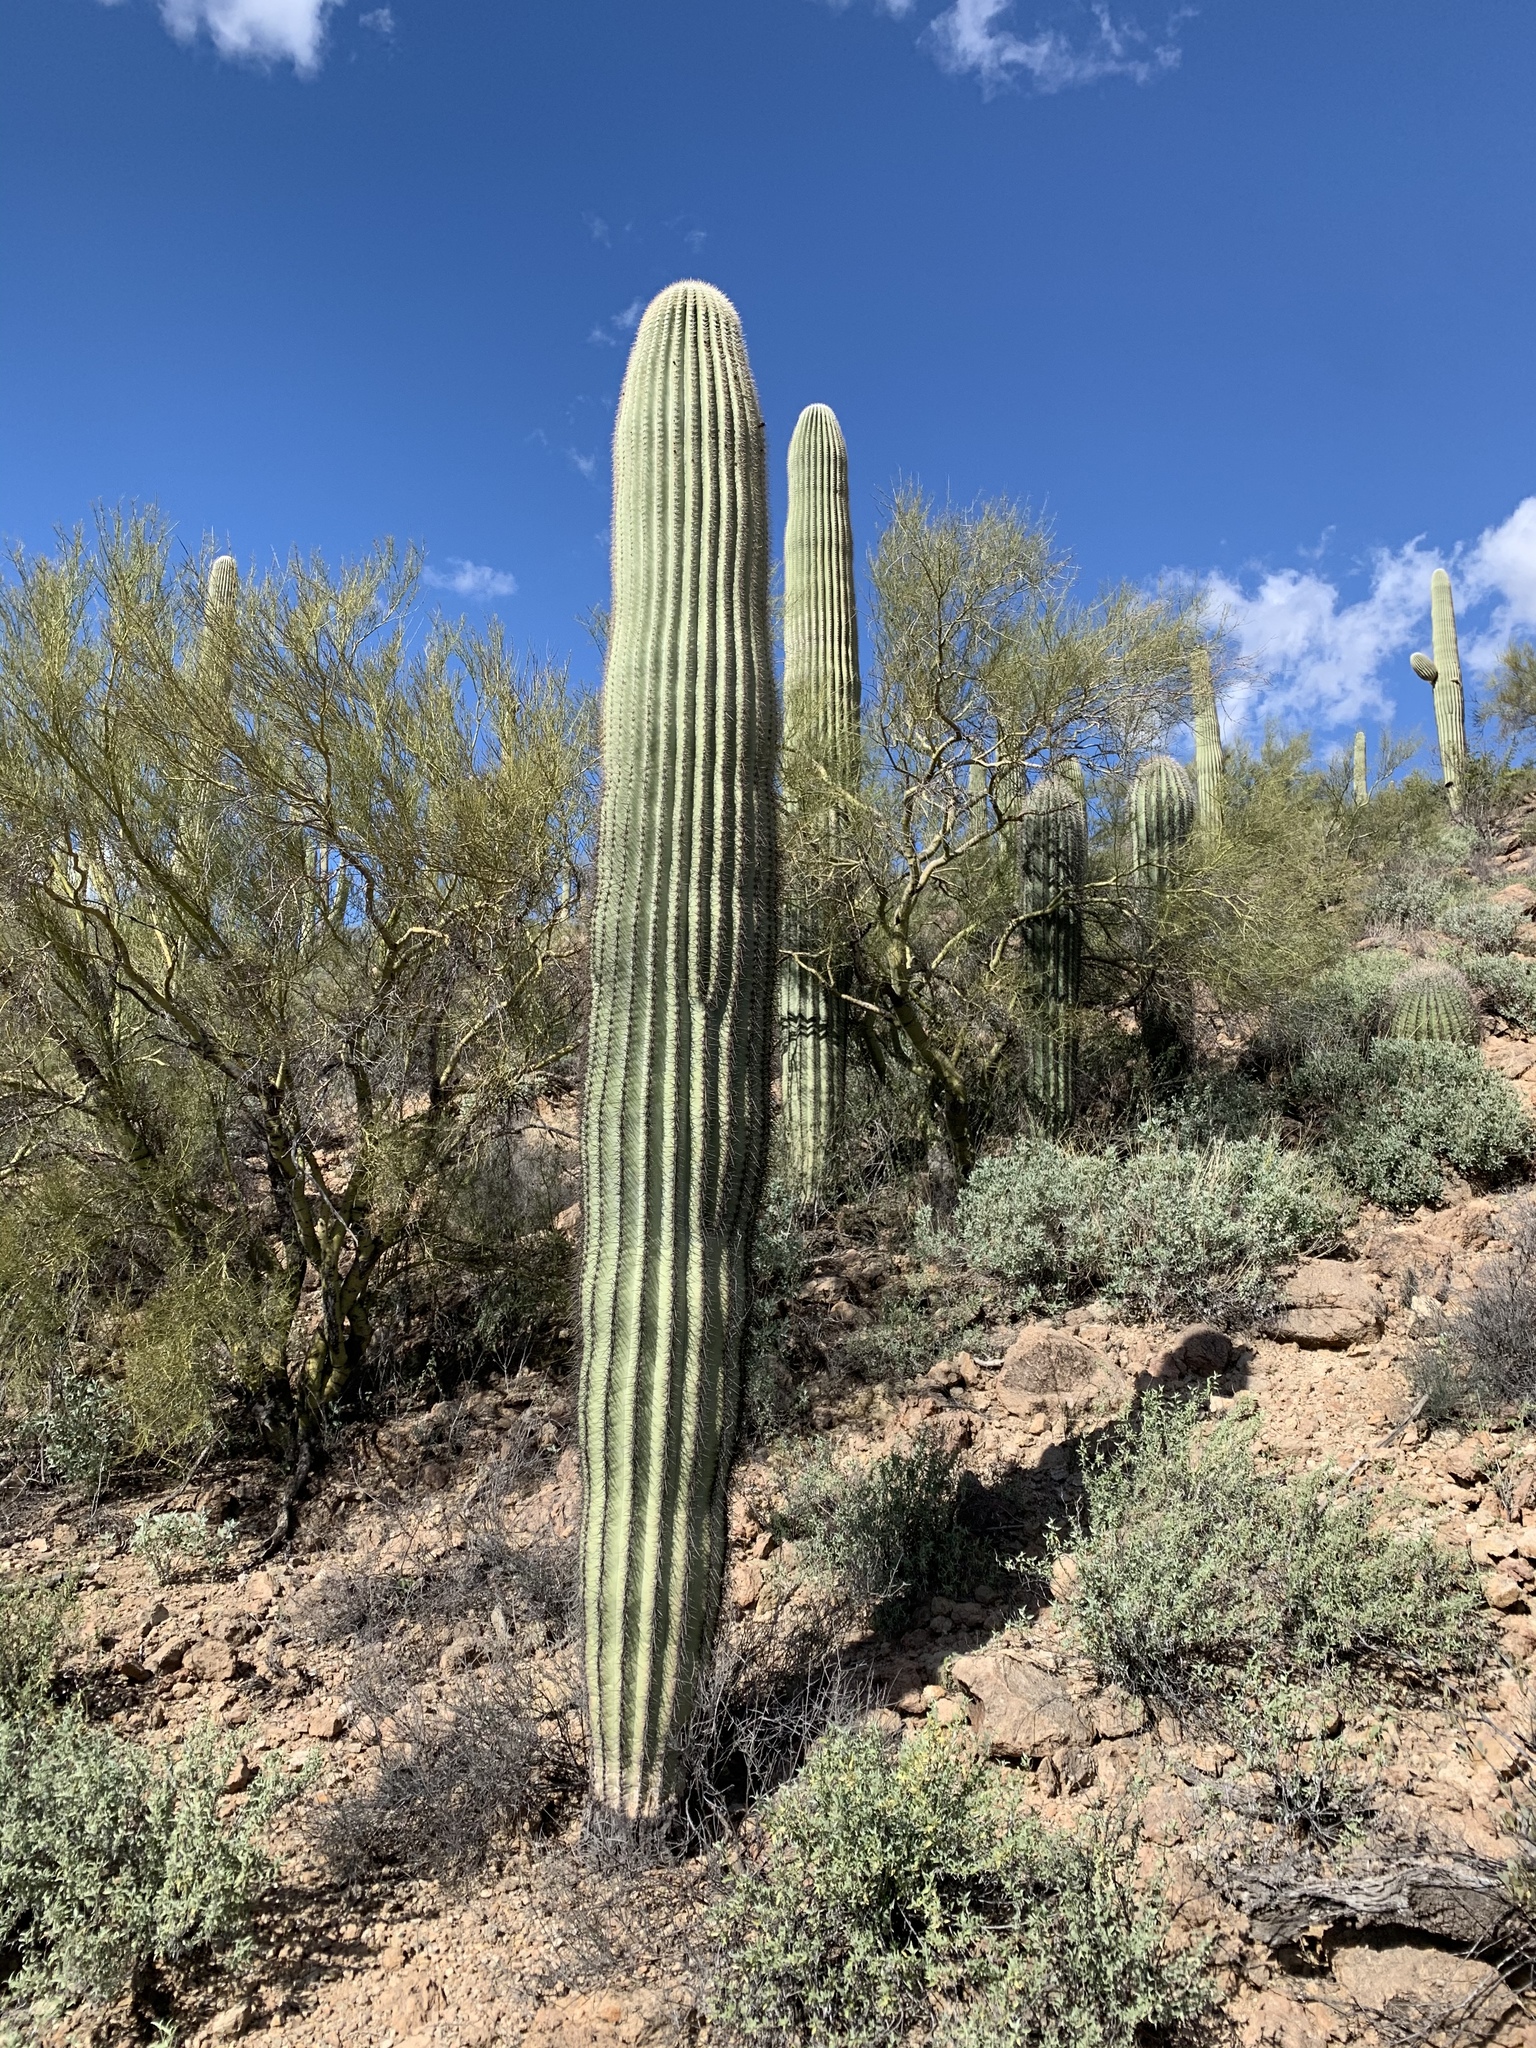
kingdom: Plantae
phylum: Tracheophyta
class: Magnoliopsida
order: Caryophyllales
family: Cactaceae
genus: Carnegiea
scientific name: Carnegiea gigantea
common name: Saguaro
